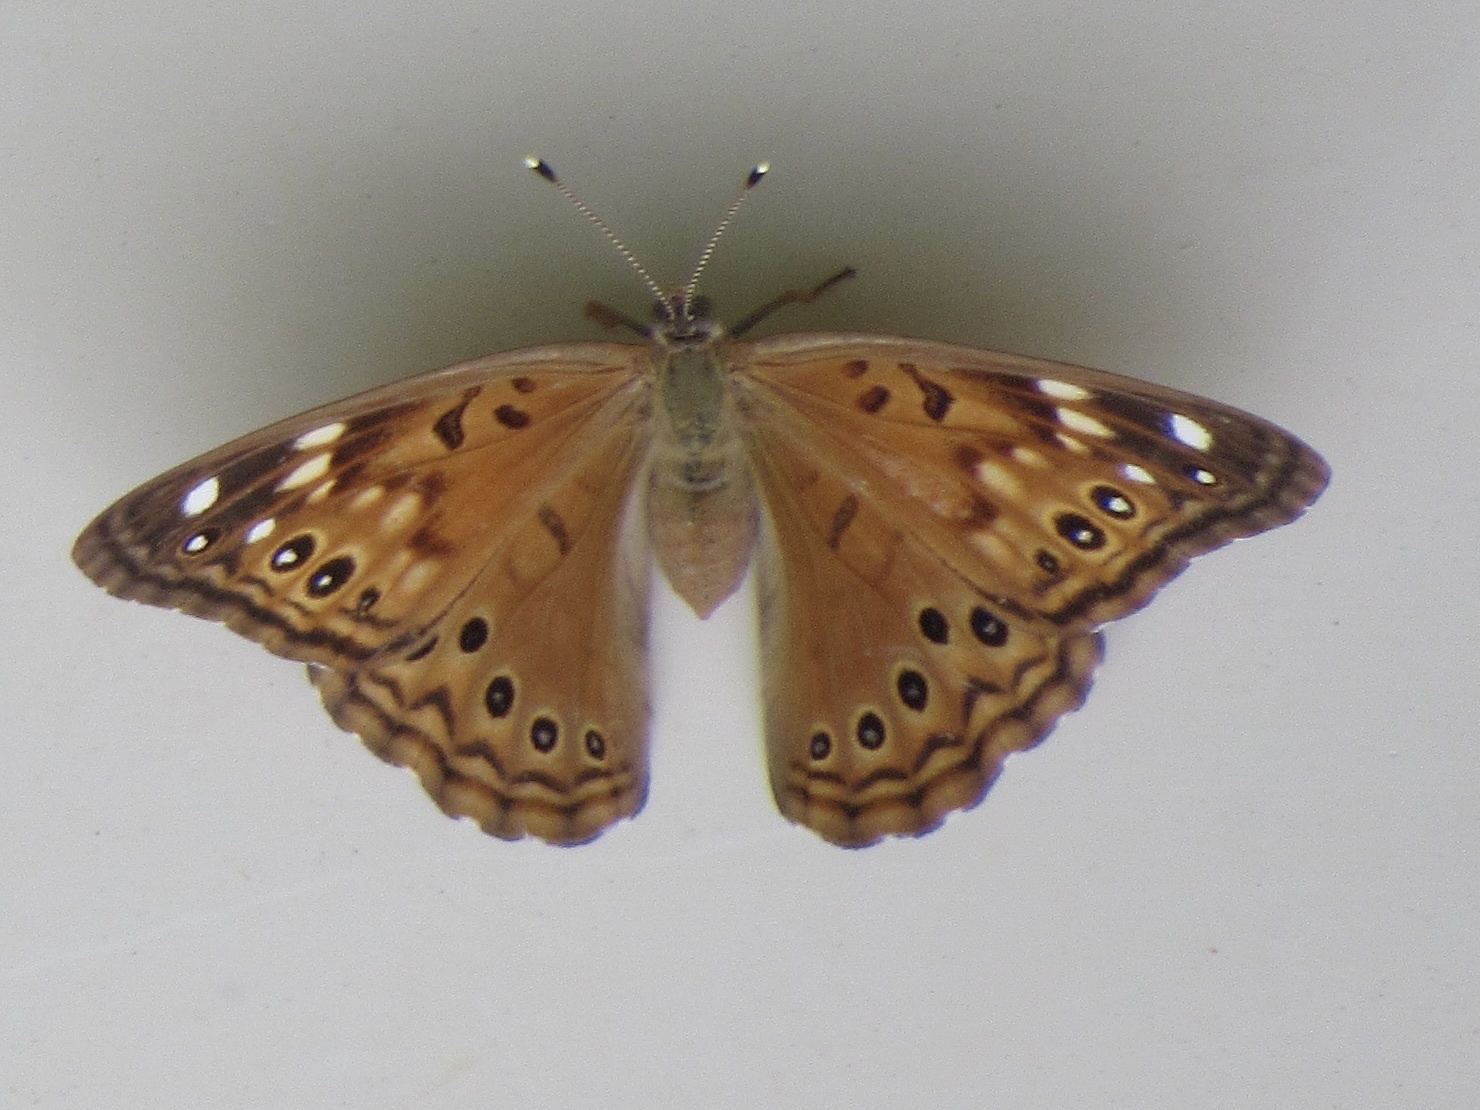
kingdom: Animalia
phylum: Arthropoda
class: Insecta
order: Lepidoptera
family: Nymphalidae
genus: Asterocampa
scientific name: Asterocampa celtis
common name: Hackberry emperor
